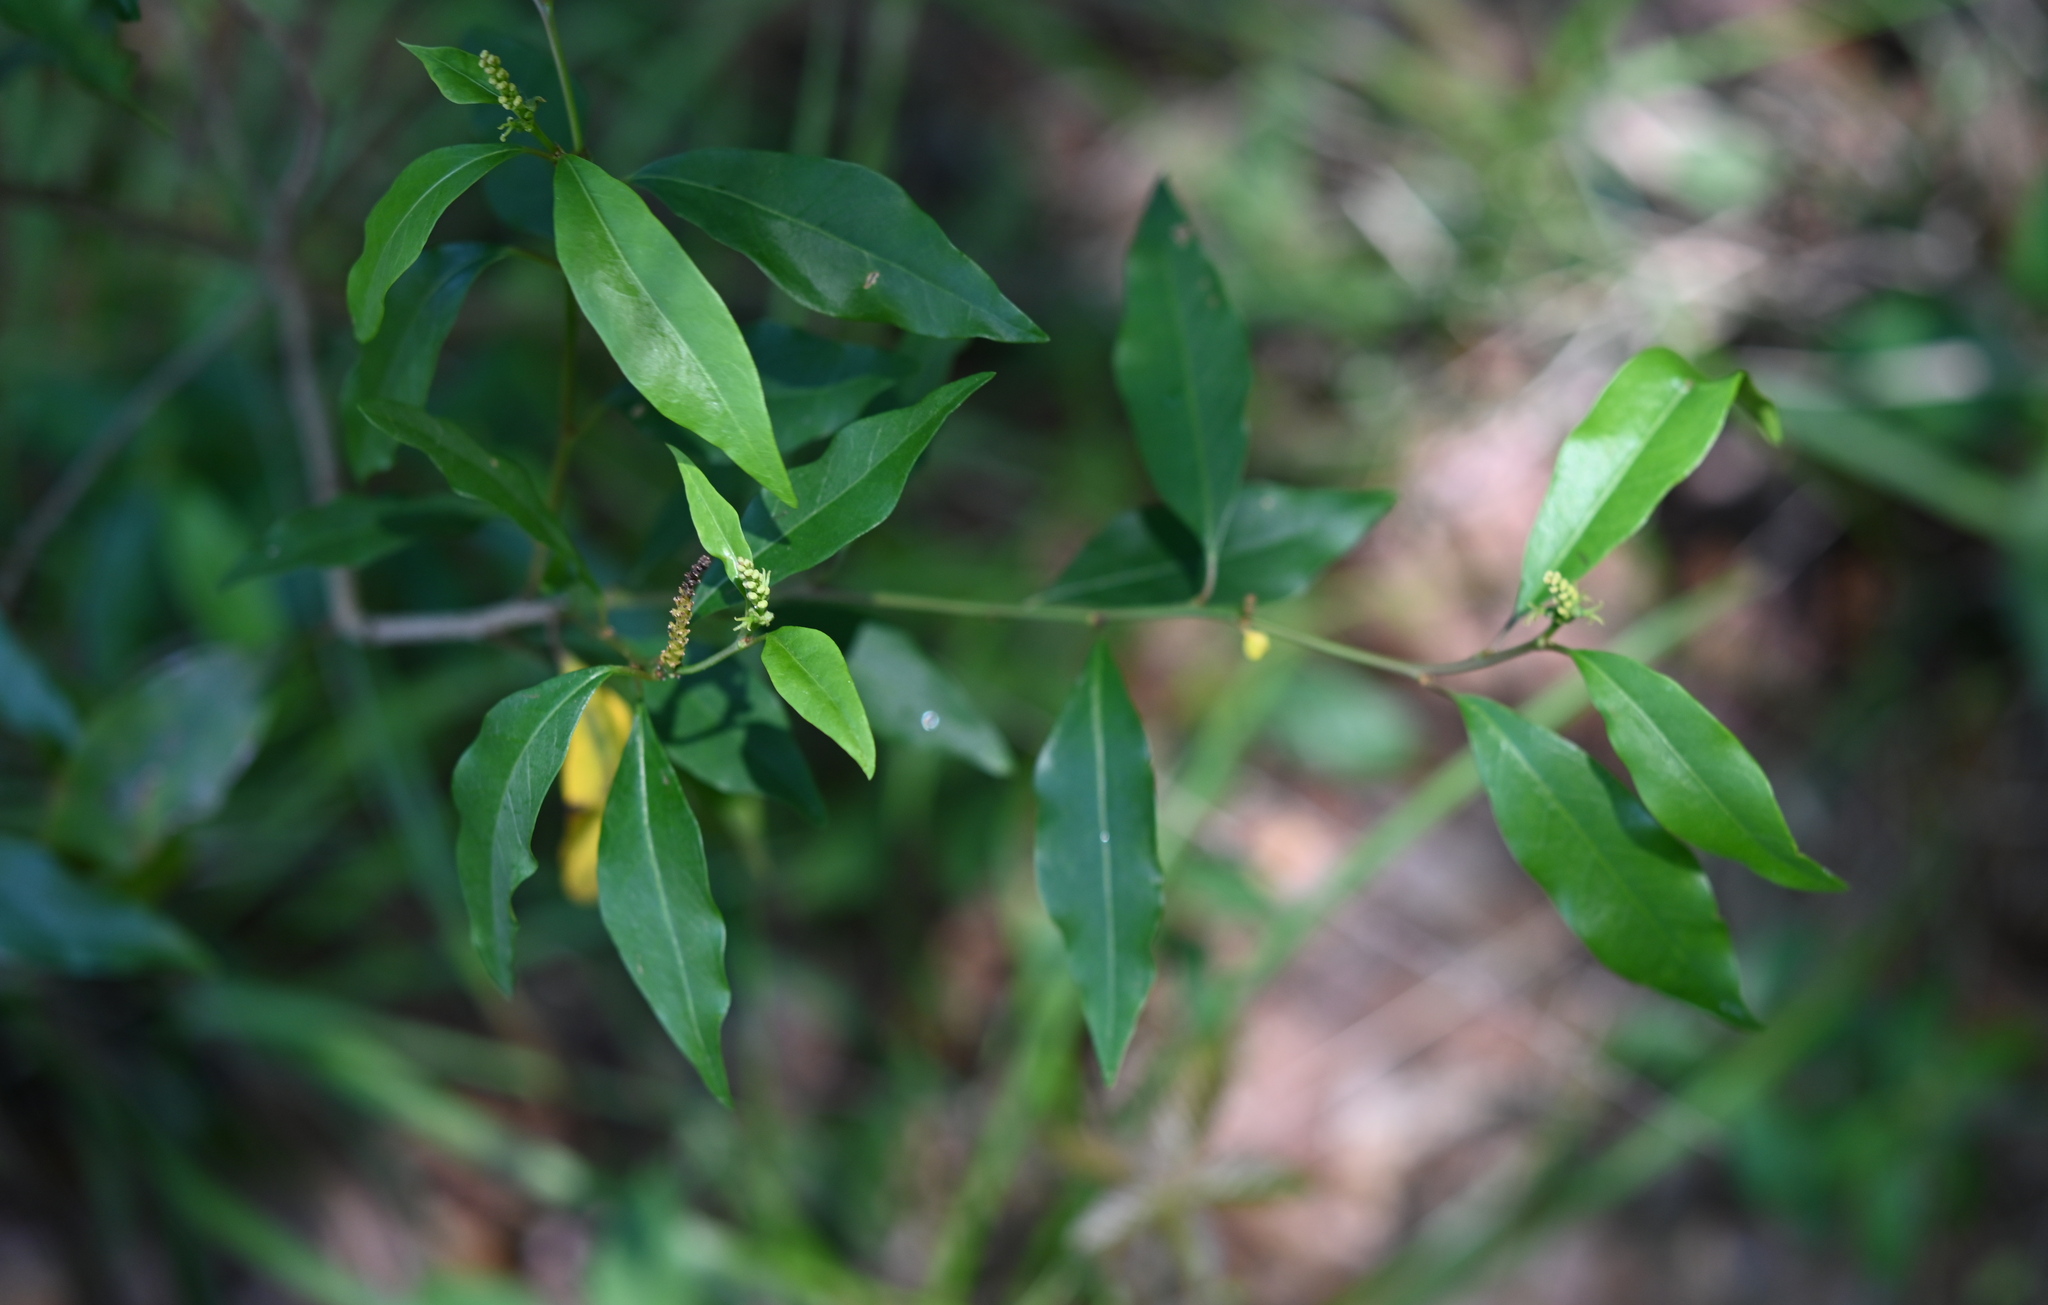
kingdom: Plantae
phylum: Tracheophyta
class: Magnoliopsida
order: Malpighiales
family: Euphorbiaceae
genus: Ditrysinia
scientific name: Ditrysinia fruticosa
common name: Gulf sebastian-bush
